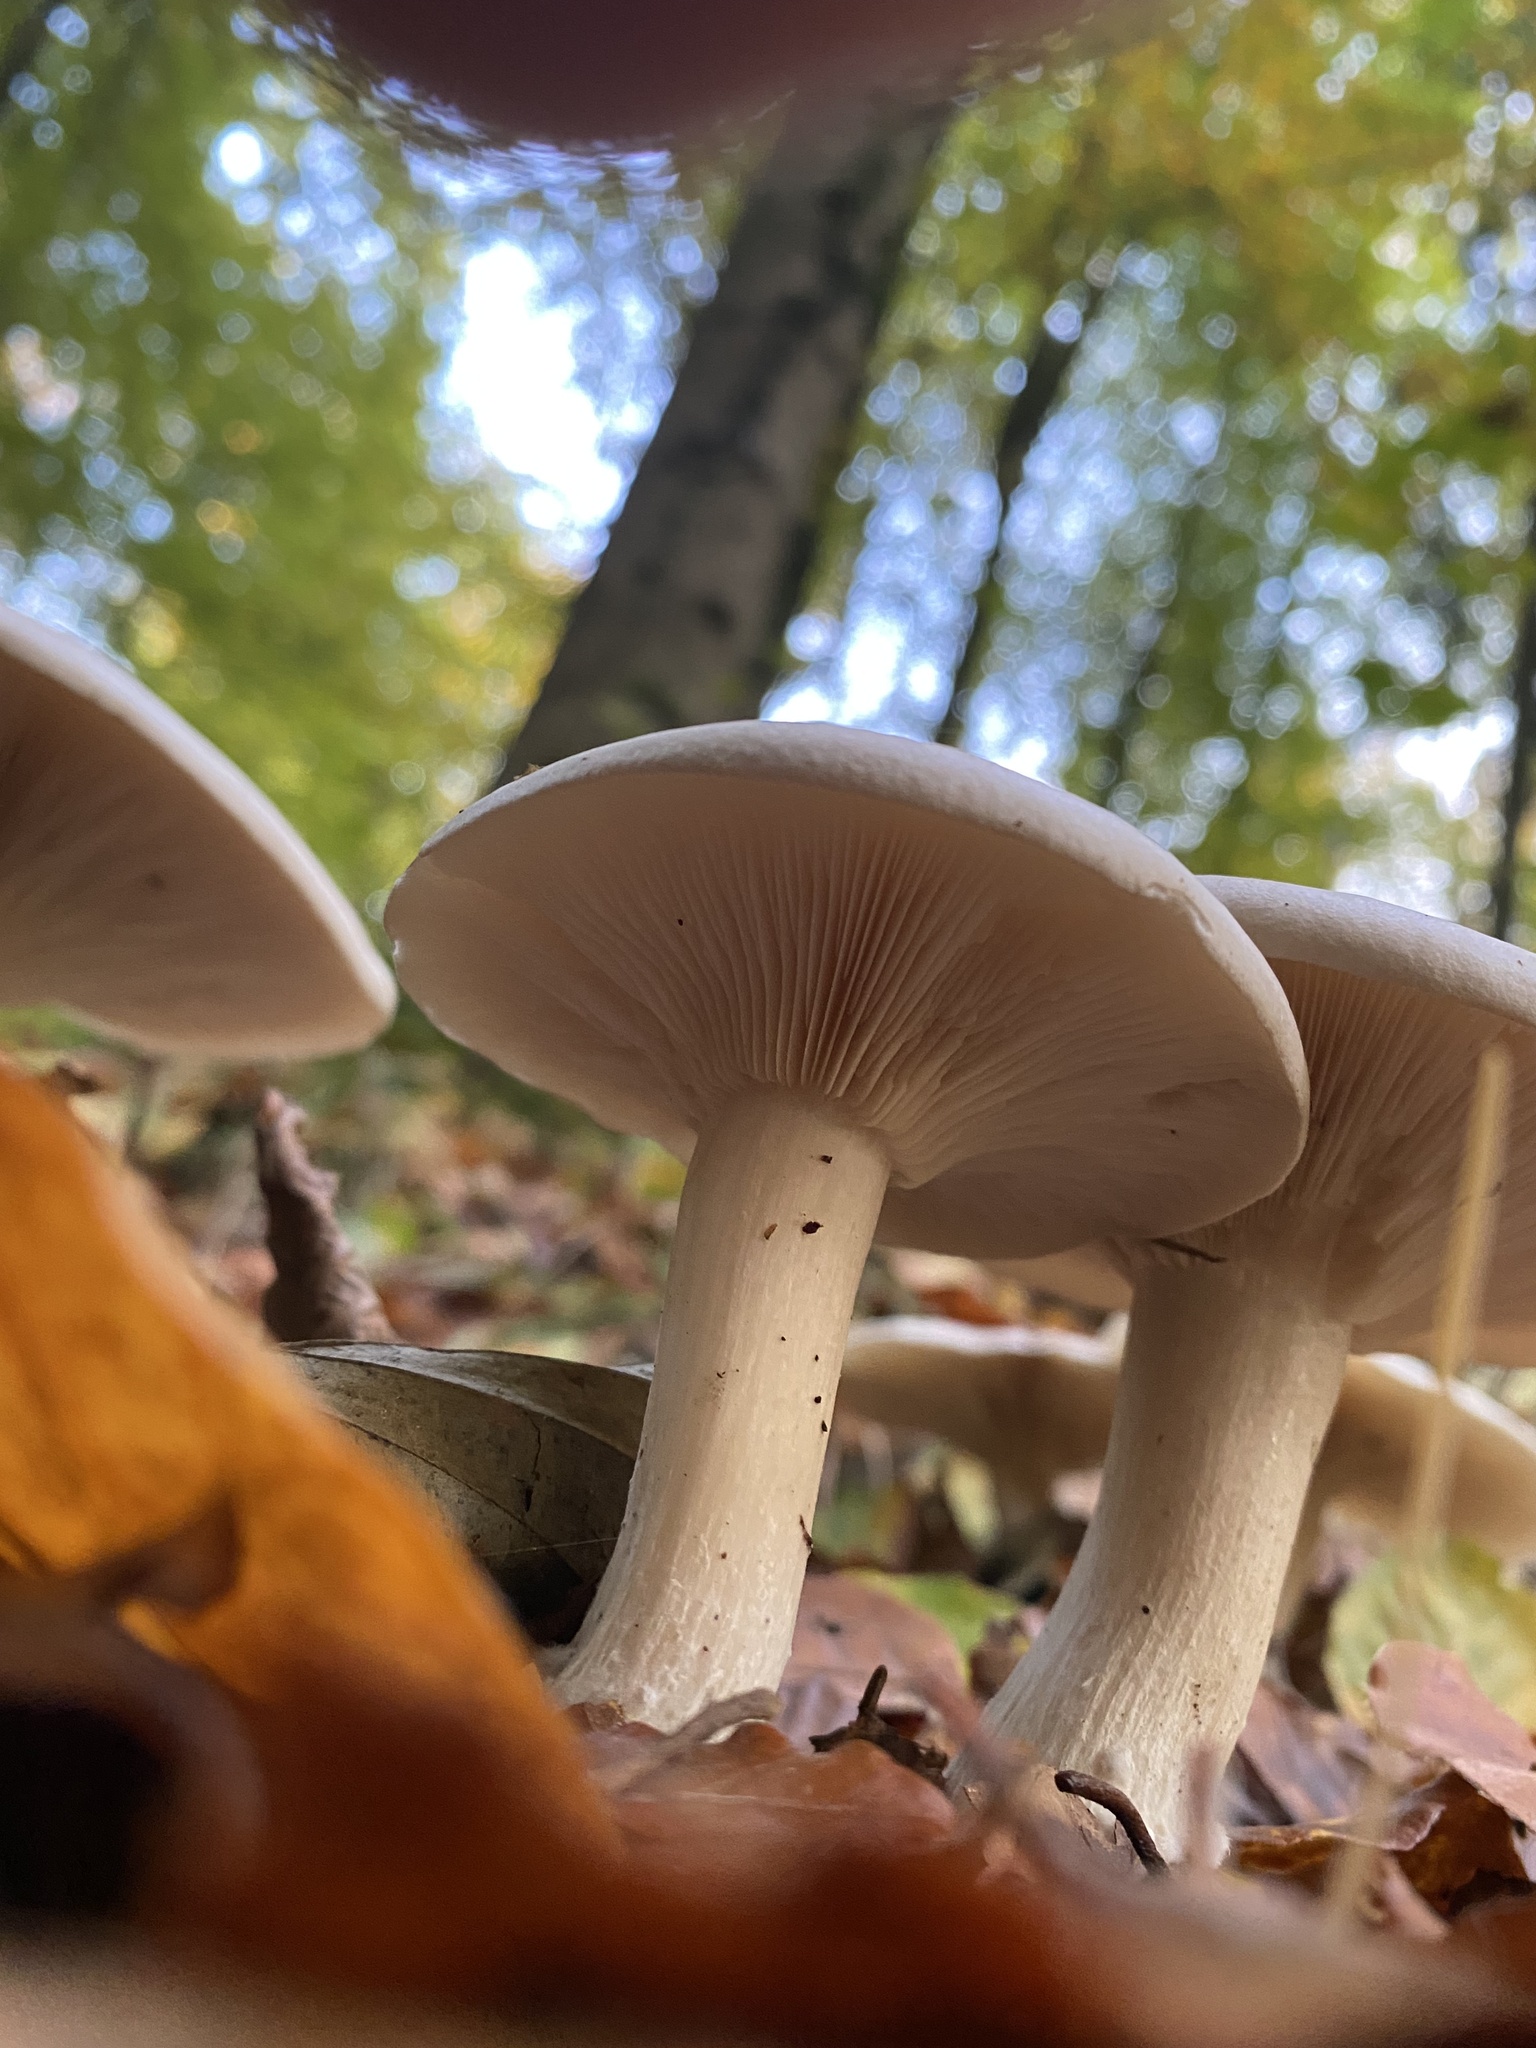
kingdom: Fungi
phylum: Basidiomycota
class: Agaricomycetes
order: Agaricales
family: Tricholomataceae
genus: Clitocybe
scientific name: Clitocybe nebularis
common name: Clouded agaric
